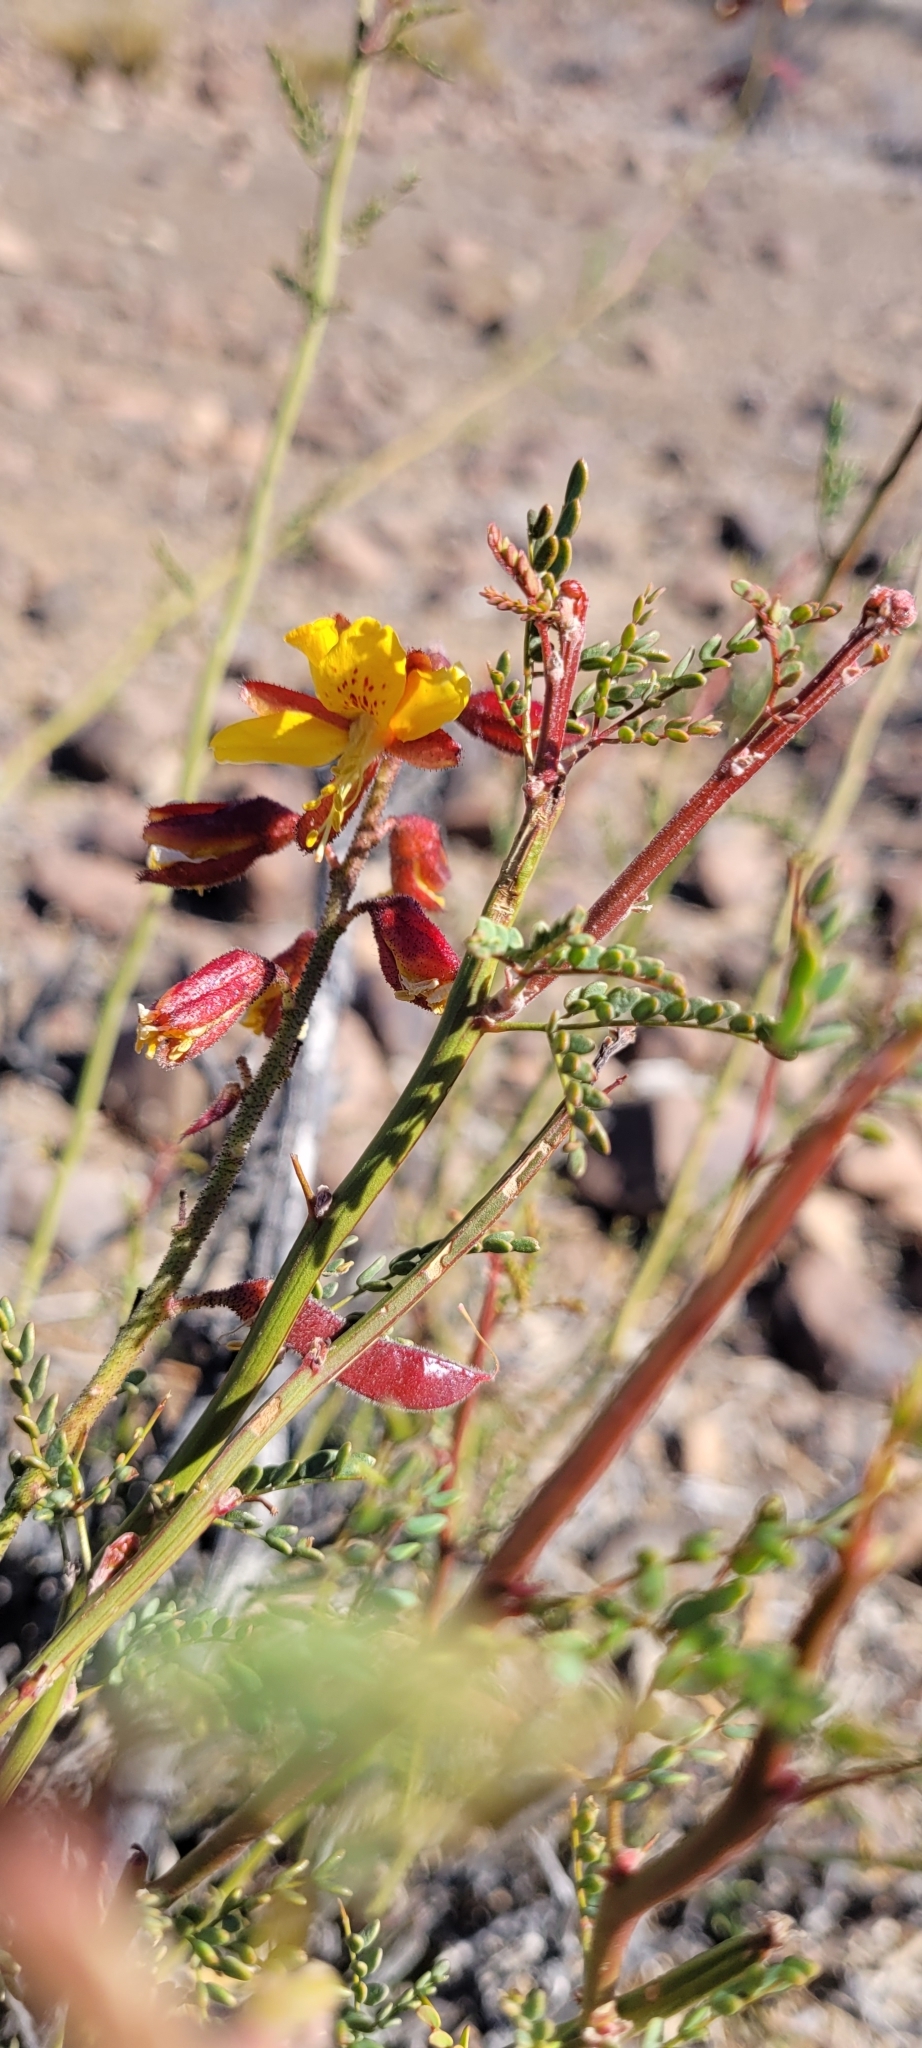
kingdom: Plantae
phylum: Tracheophyta
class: Magnoliopsida
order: Fabales
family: Fabaceae
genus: Erythrostemon
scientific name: Erythrostemon angulatus
